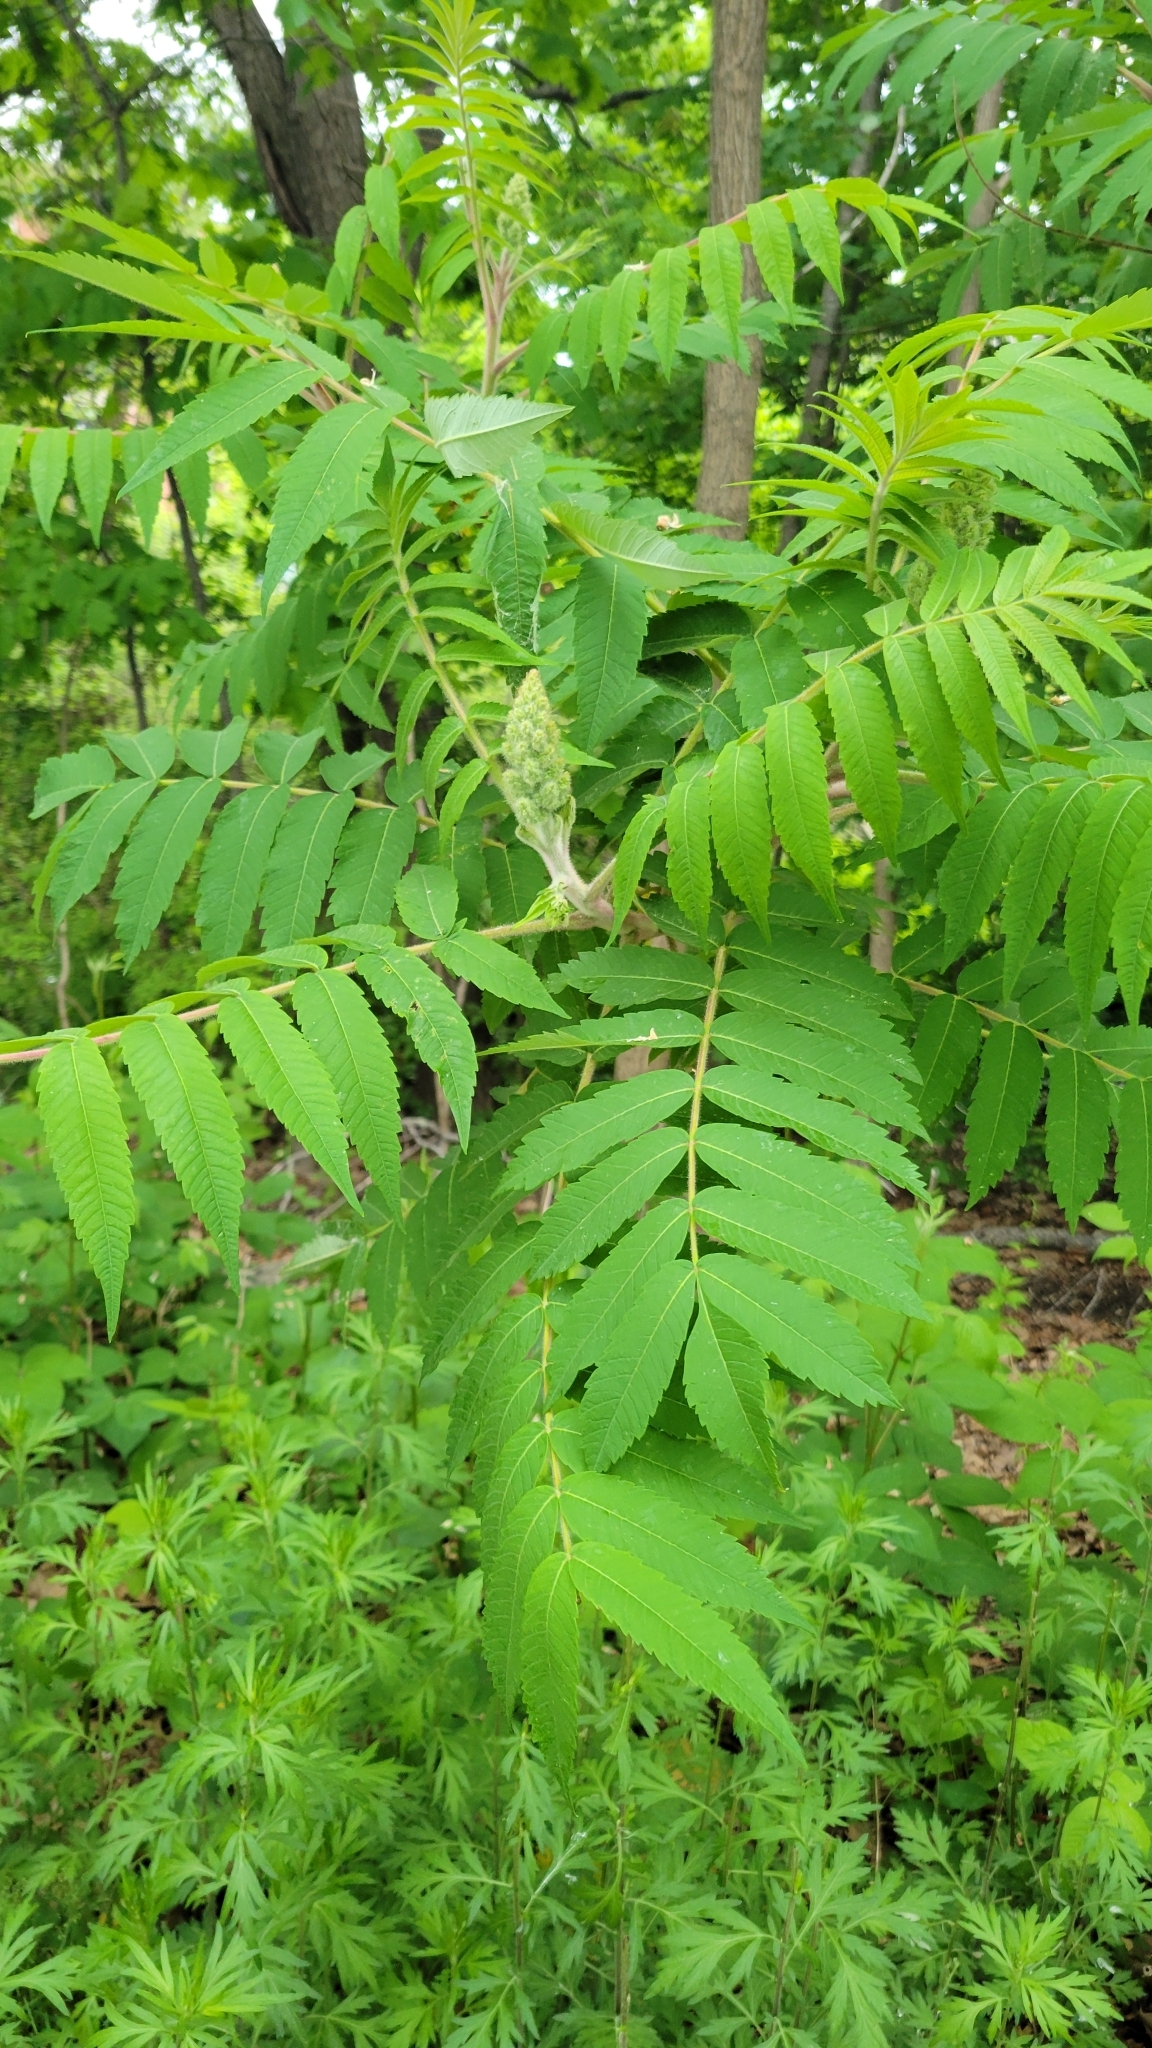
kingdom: Plantae
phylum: Tracheophyta
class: Magnoliopsida
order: Sapindales
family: Anacardiaceae
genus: Rhus
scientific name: Rhus typhina
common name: Staghorn sumac
